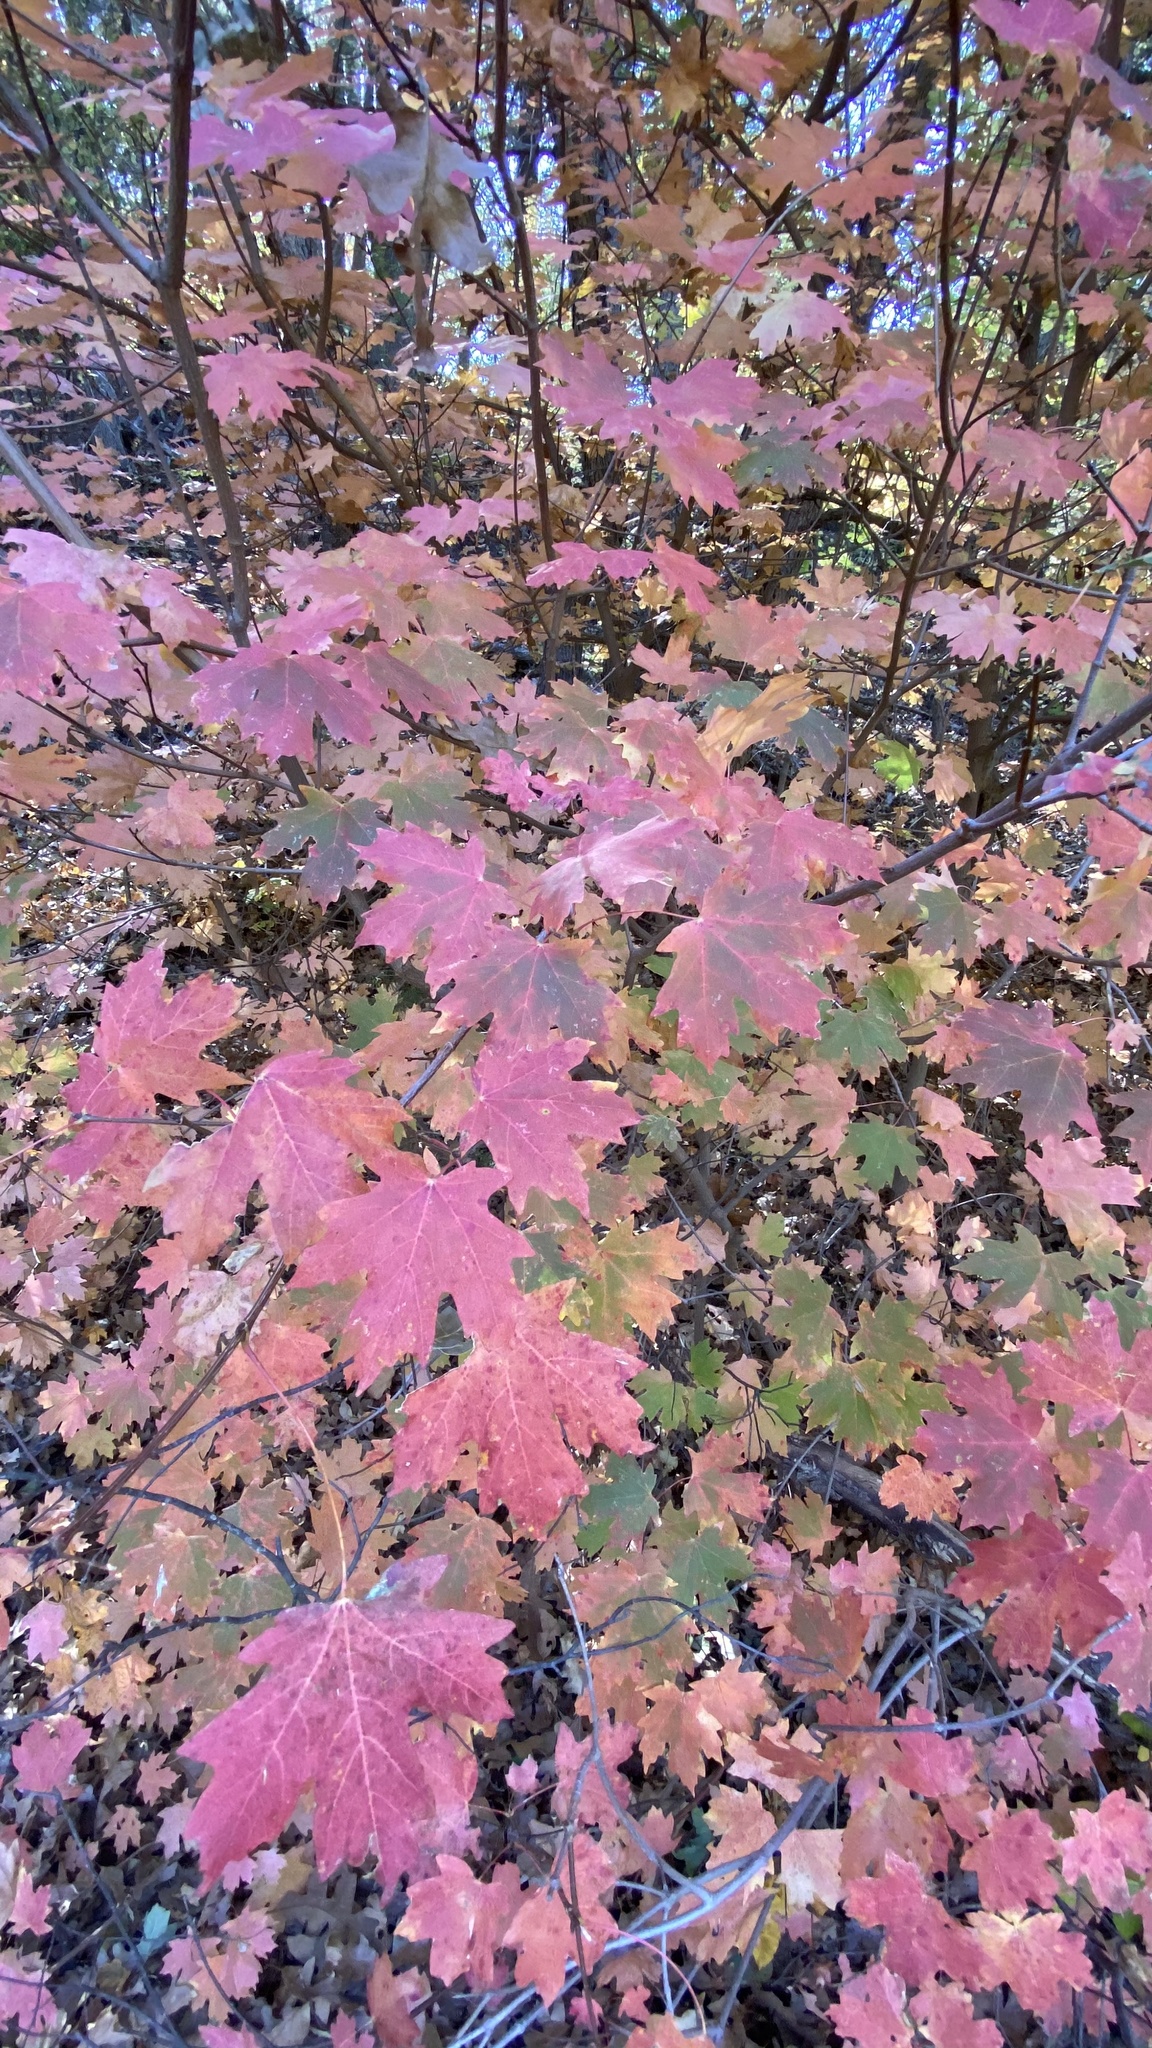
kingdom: Plantae
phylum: Tracheophyta
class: Magnoliopsida
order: Sapindales
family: Sapindaceae
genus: Acer
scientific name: Acer grandidentatum
